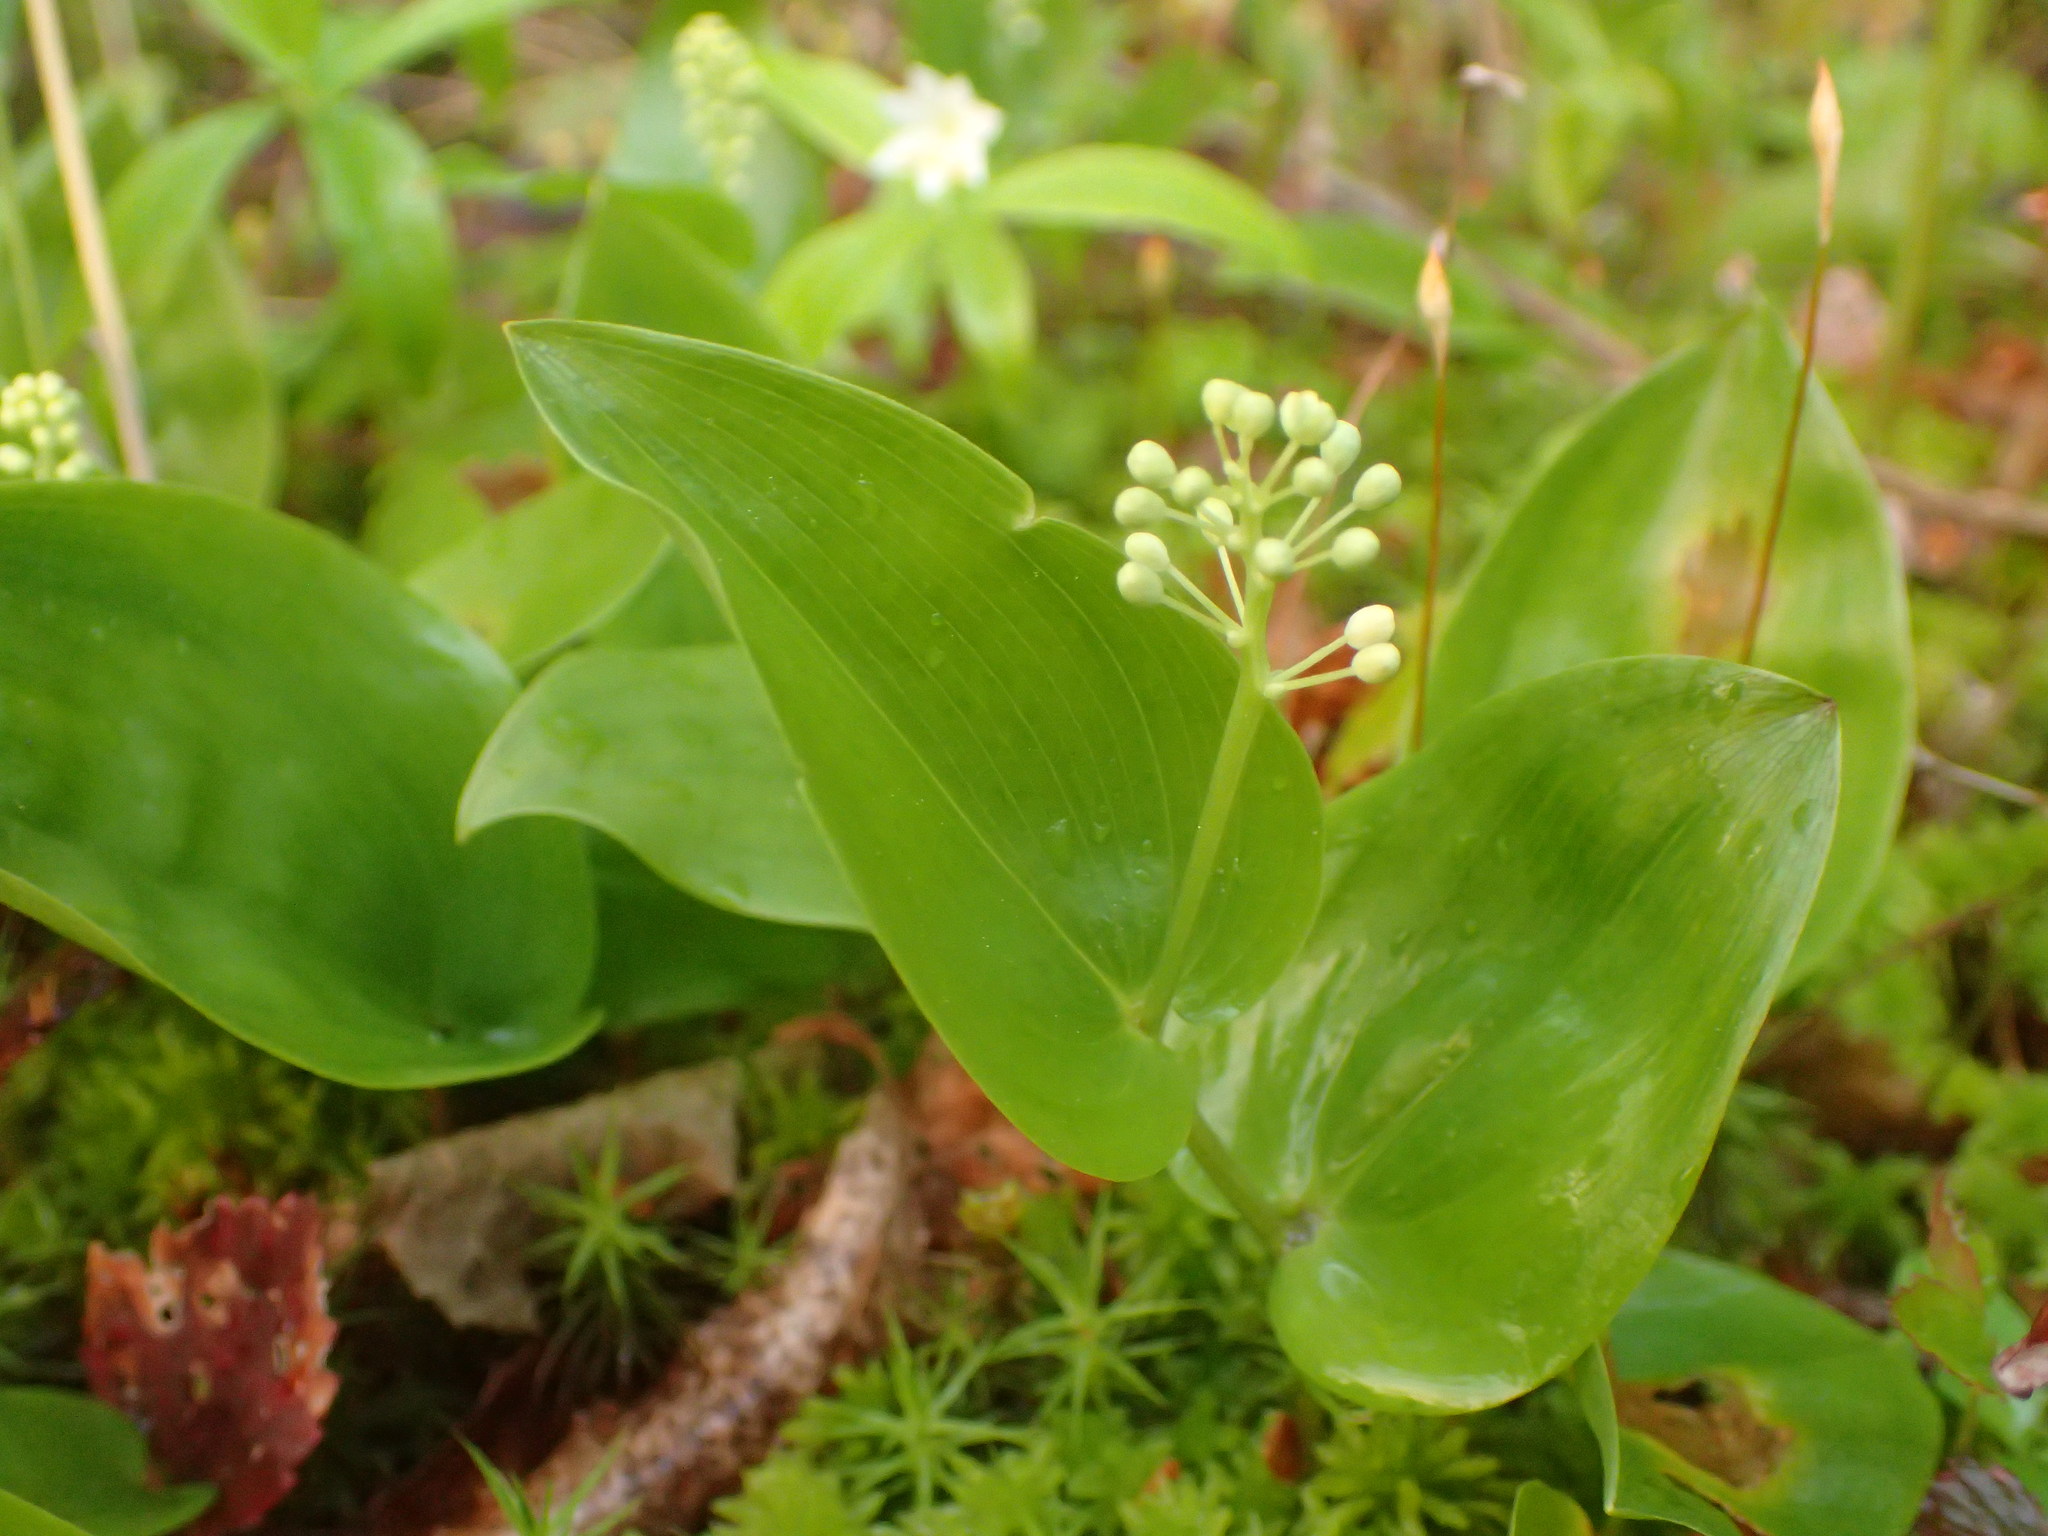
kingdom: Plantae
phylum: Tracheophyta
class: Liliopsida
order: Asparagales
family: Asparagaceae
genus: Maianthemum
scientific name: Maianthemum canadense
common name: False lily-of-the-valley
